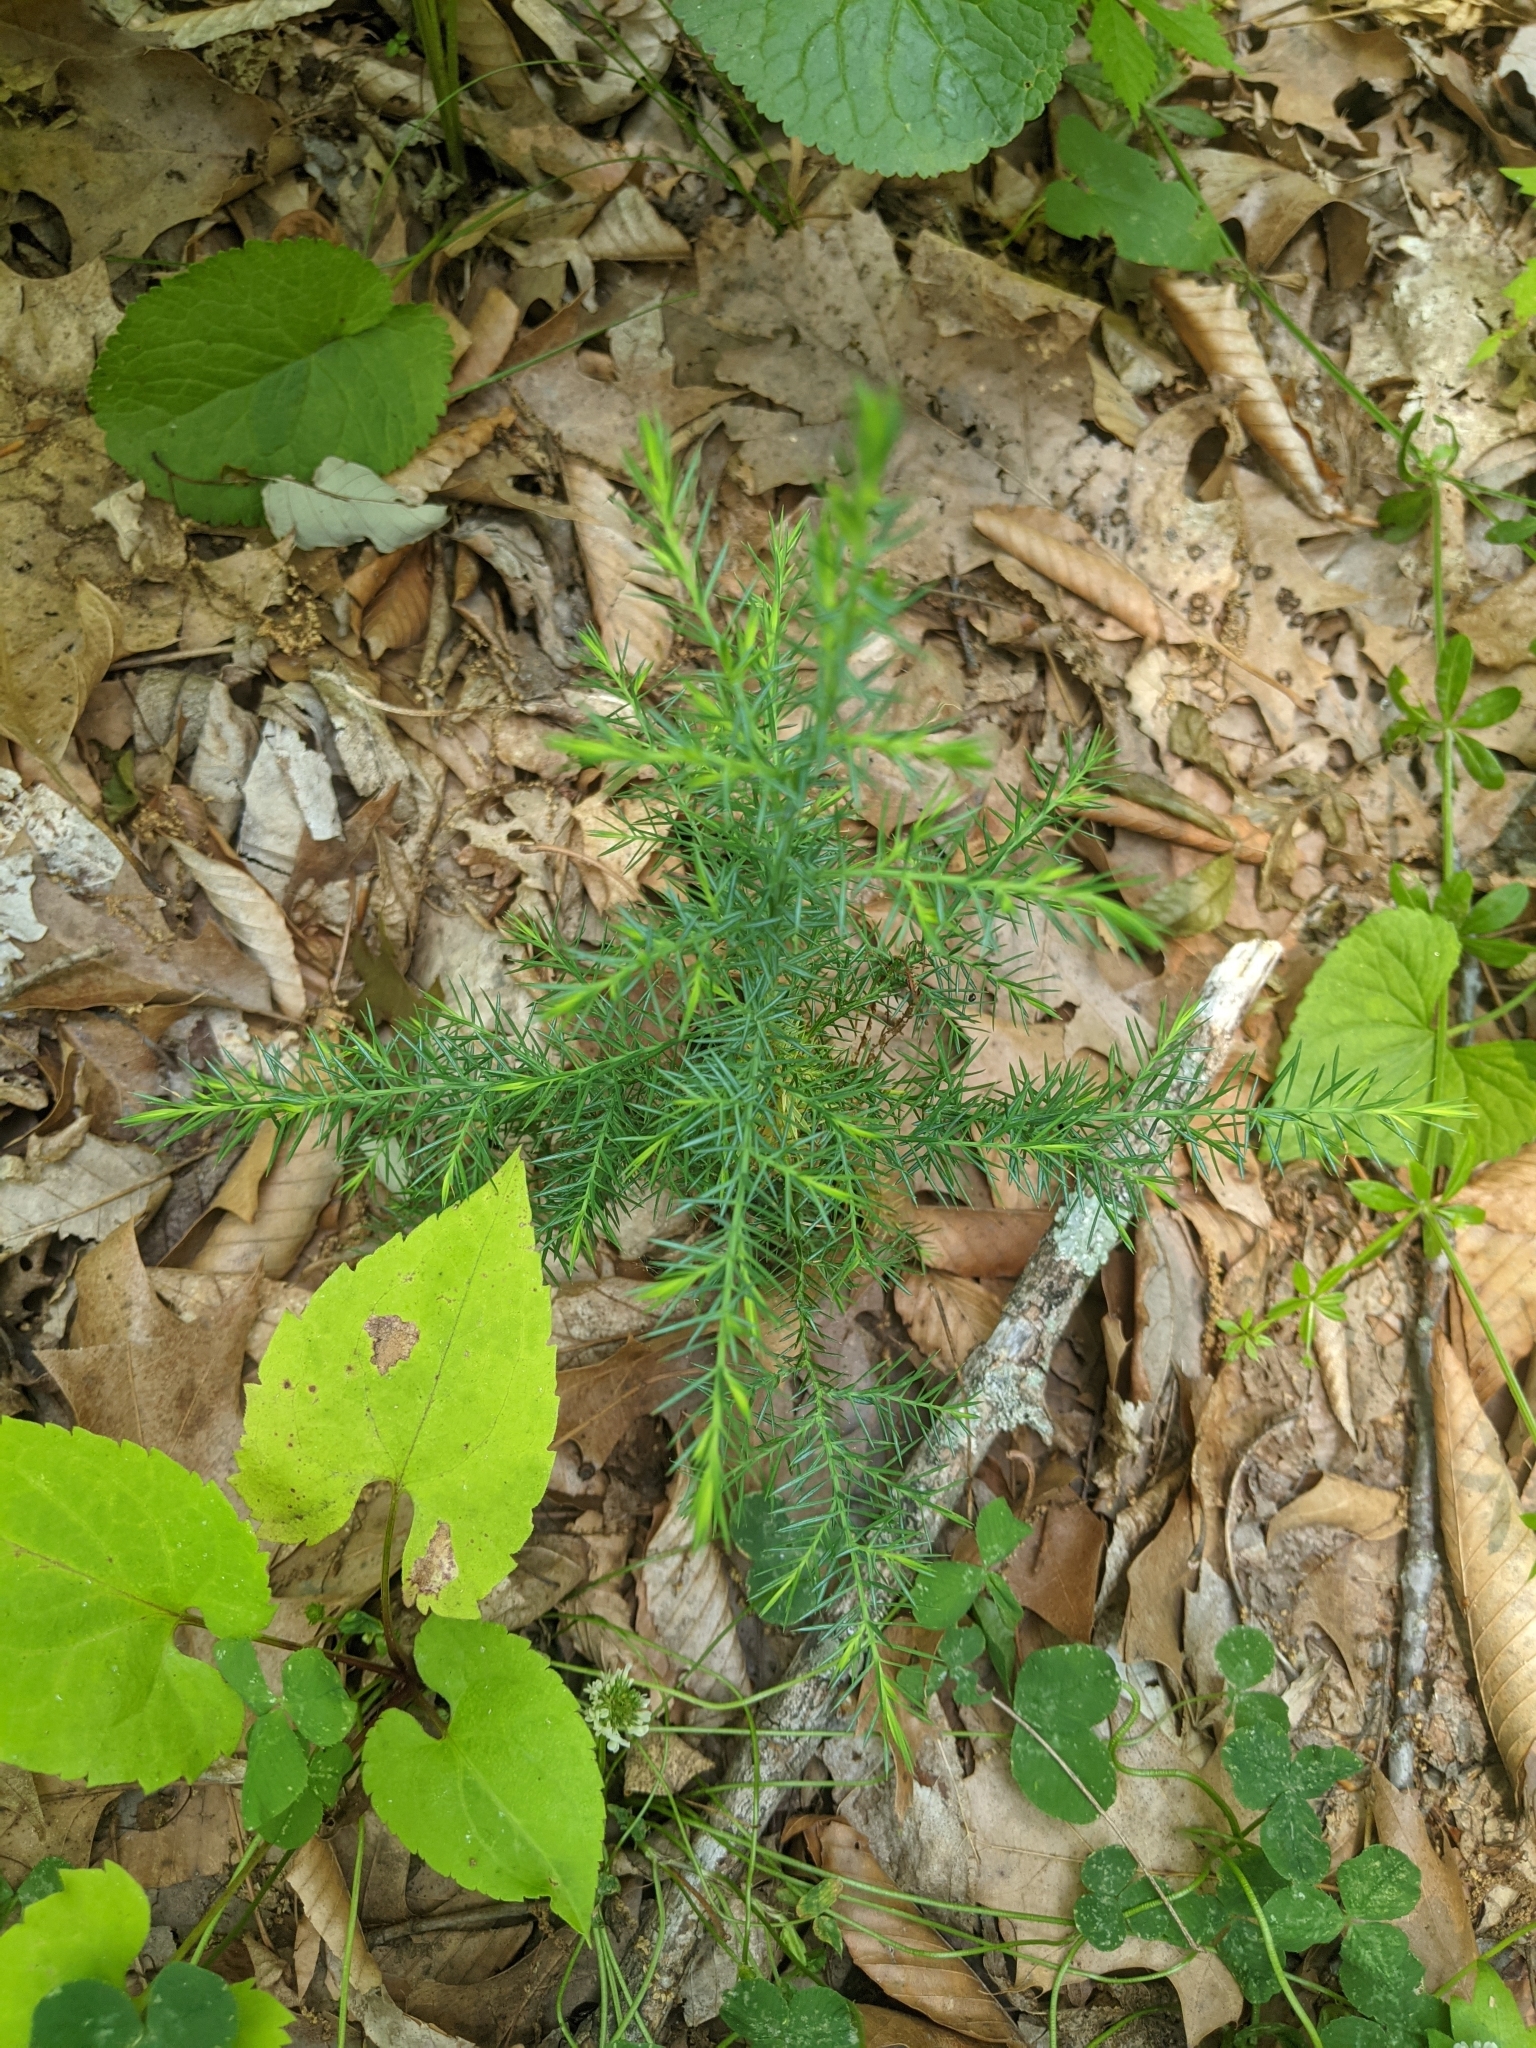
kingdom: Plantae
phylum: Tracheophyta
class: Pinopsida
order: Pinales
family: Cupressaceae
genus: Juniperus
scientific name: Juniperus virginiana
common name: Red juniper
